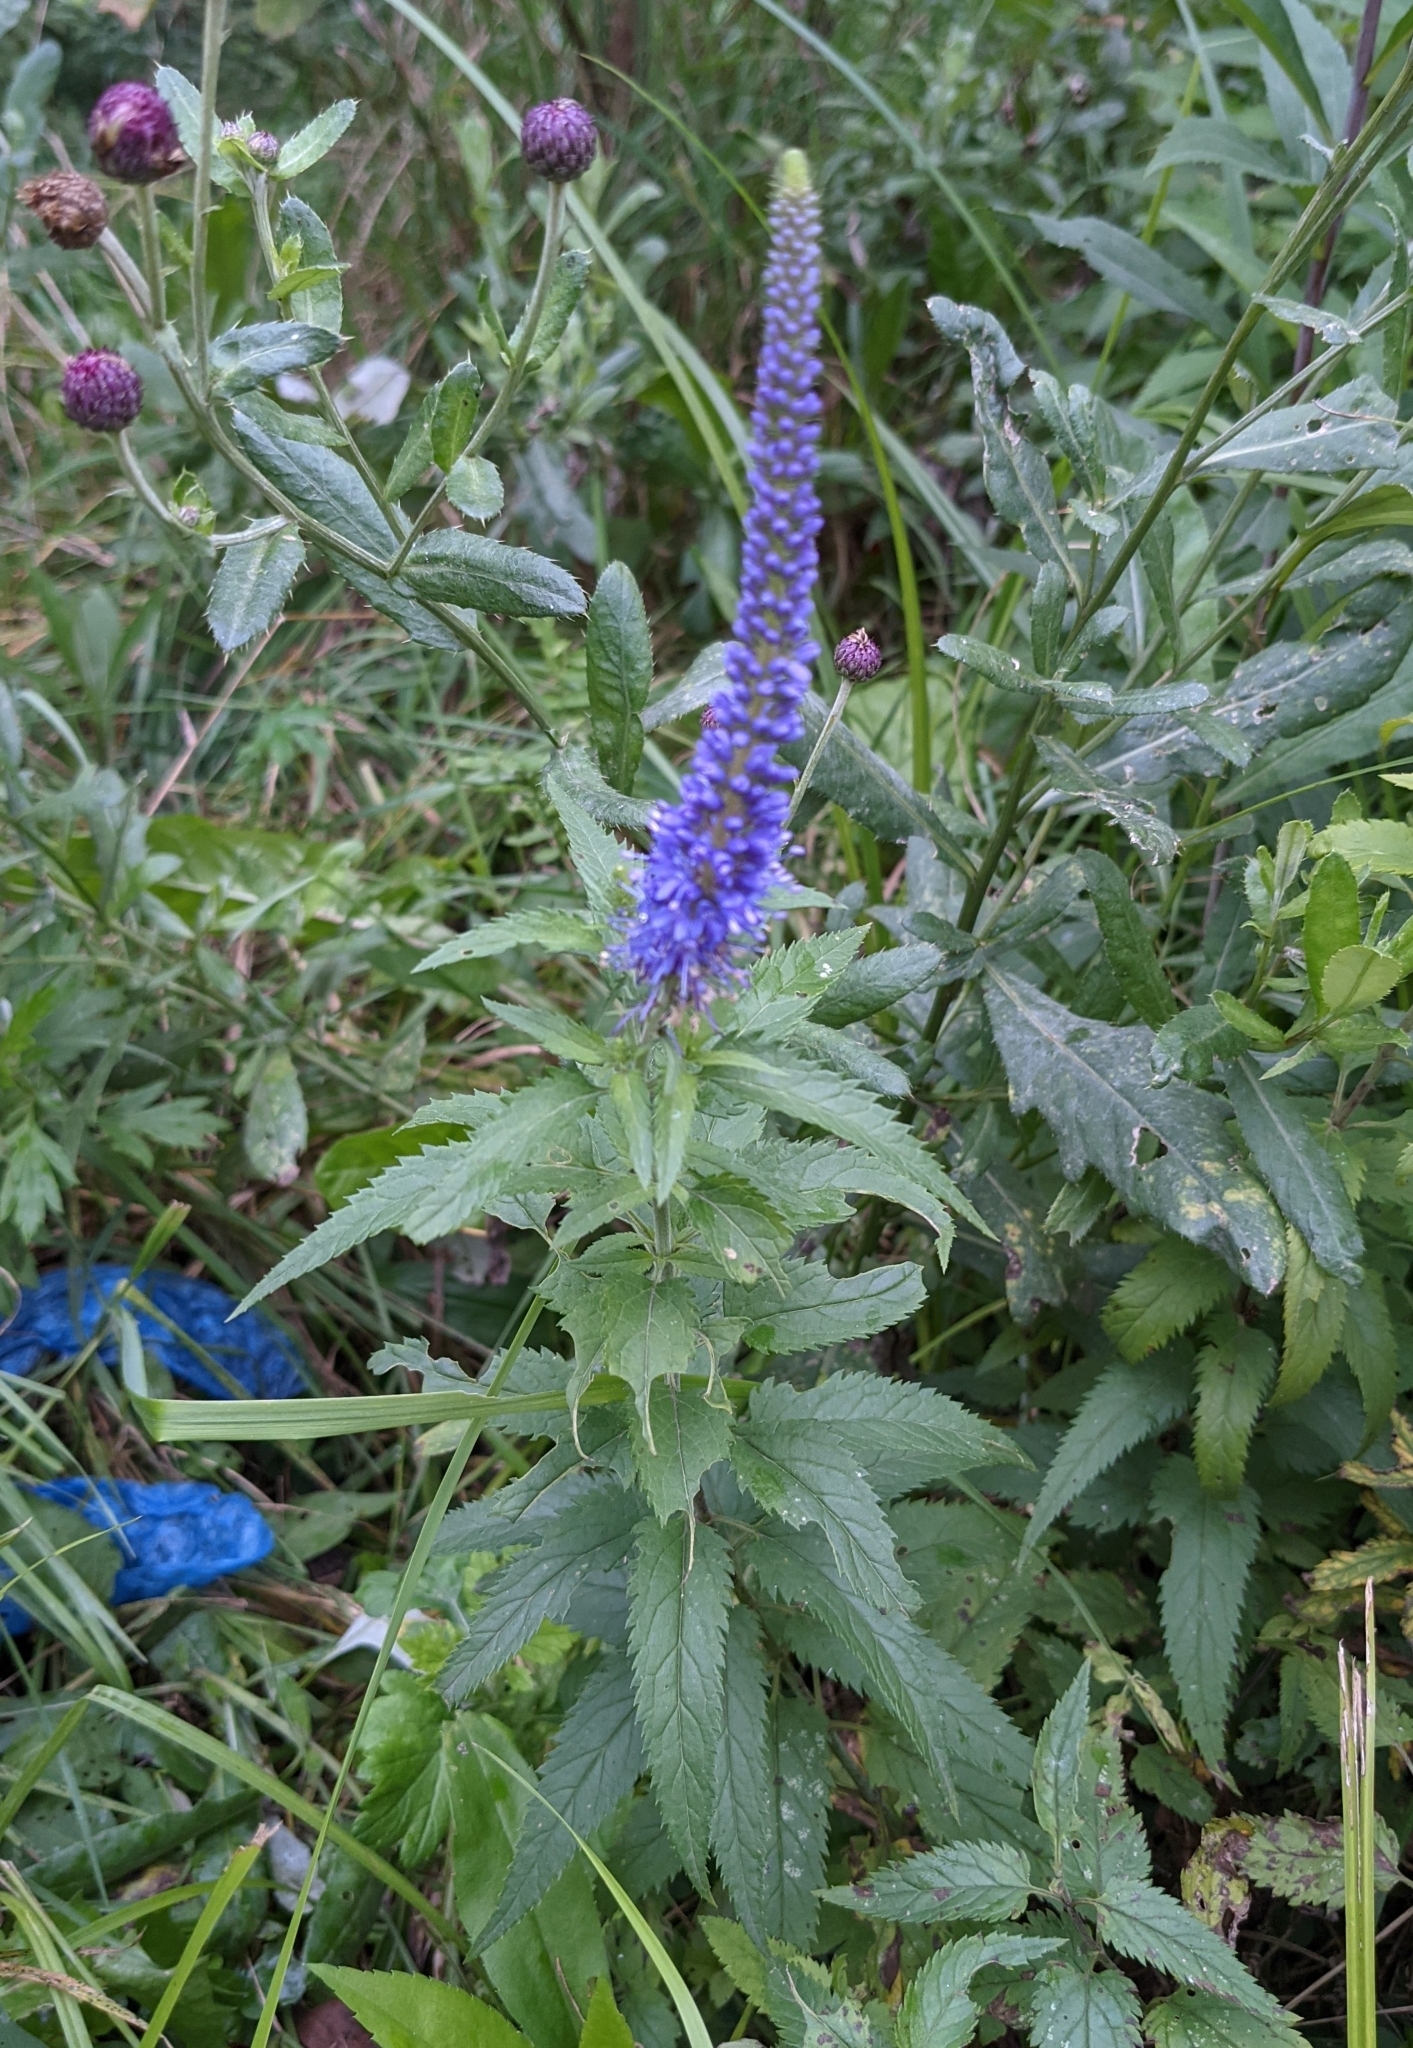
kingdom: Plantae
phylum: Tracheophyta
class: Magnoliopsida
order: Lamiales
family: Plantaginaceae
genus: Veronica
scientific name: Veronica longifolia
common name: Garden speedwell
